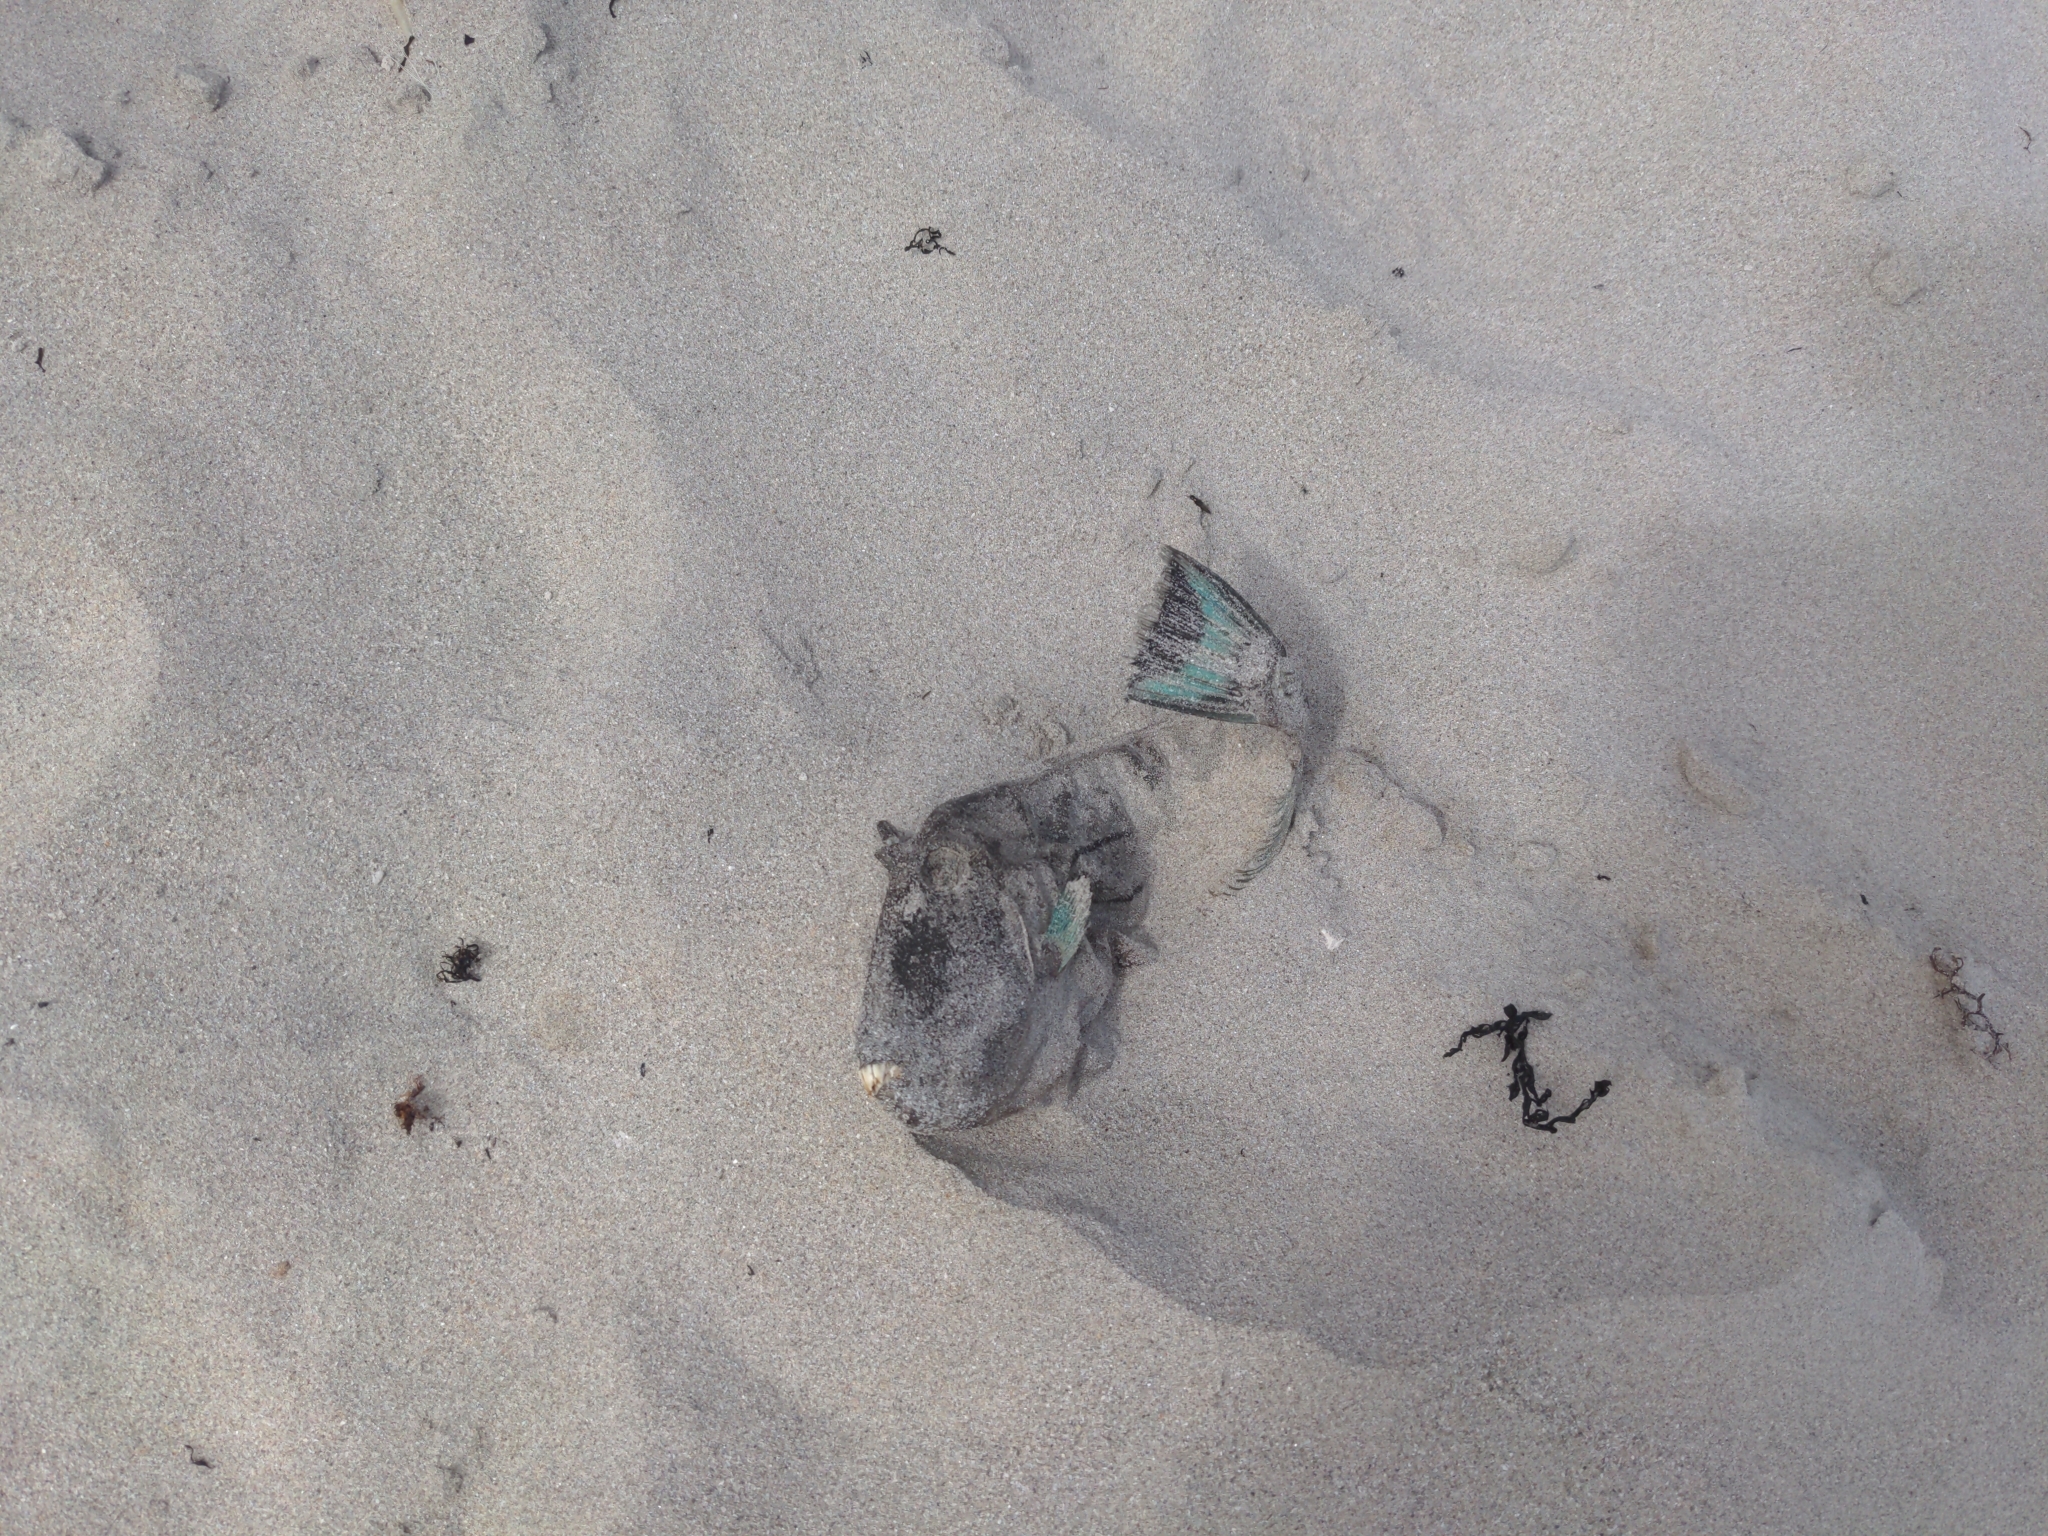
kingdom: Animalia
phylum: Chordata
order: Tetraodontiformes
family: Monacanthidae
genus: Meuschenia
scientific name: Meuschenia hippocrepis
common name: Horse-shoe leatherjacket
